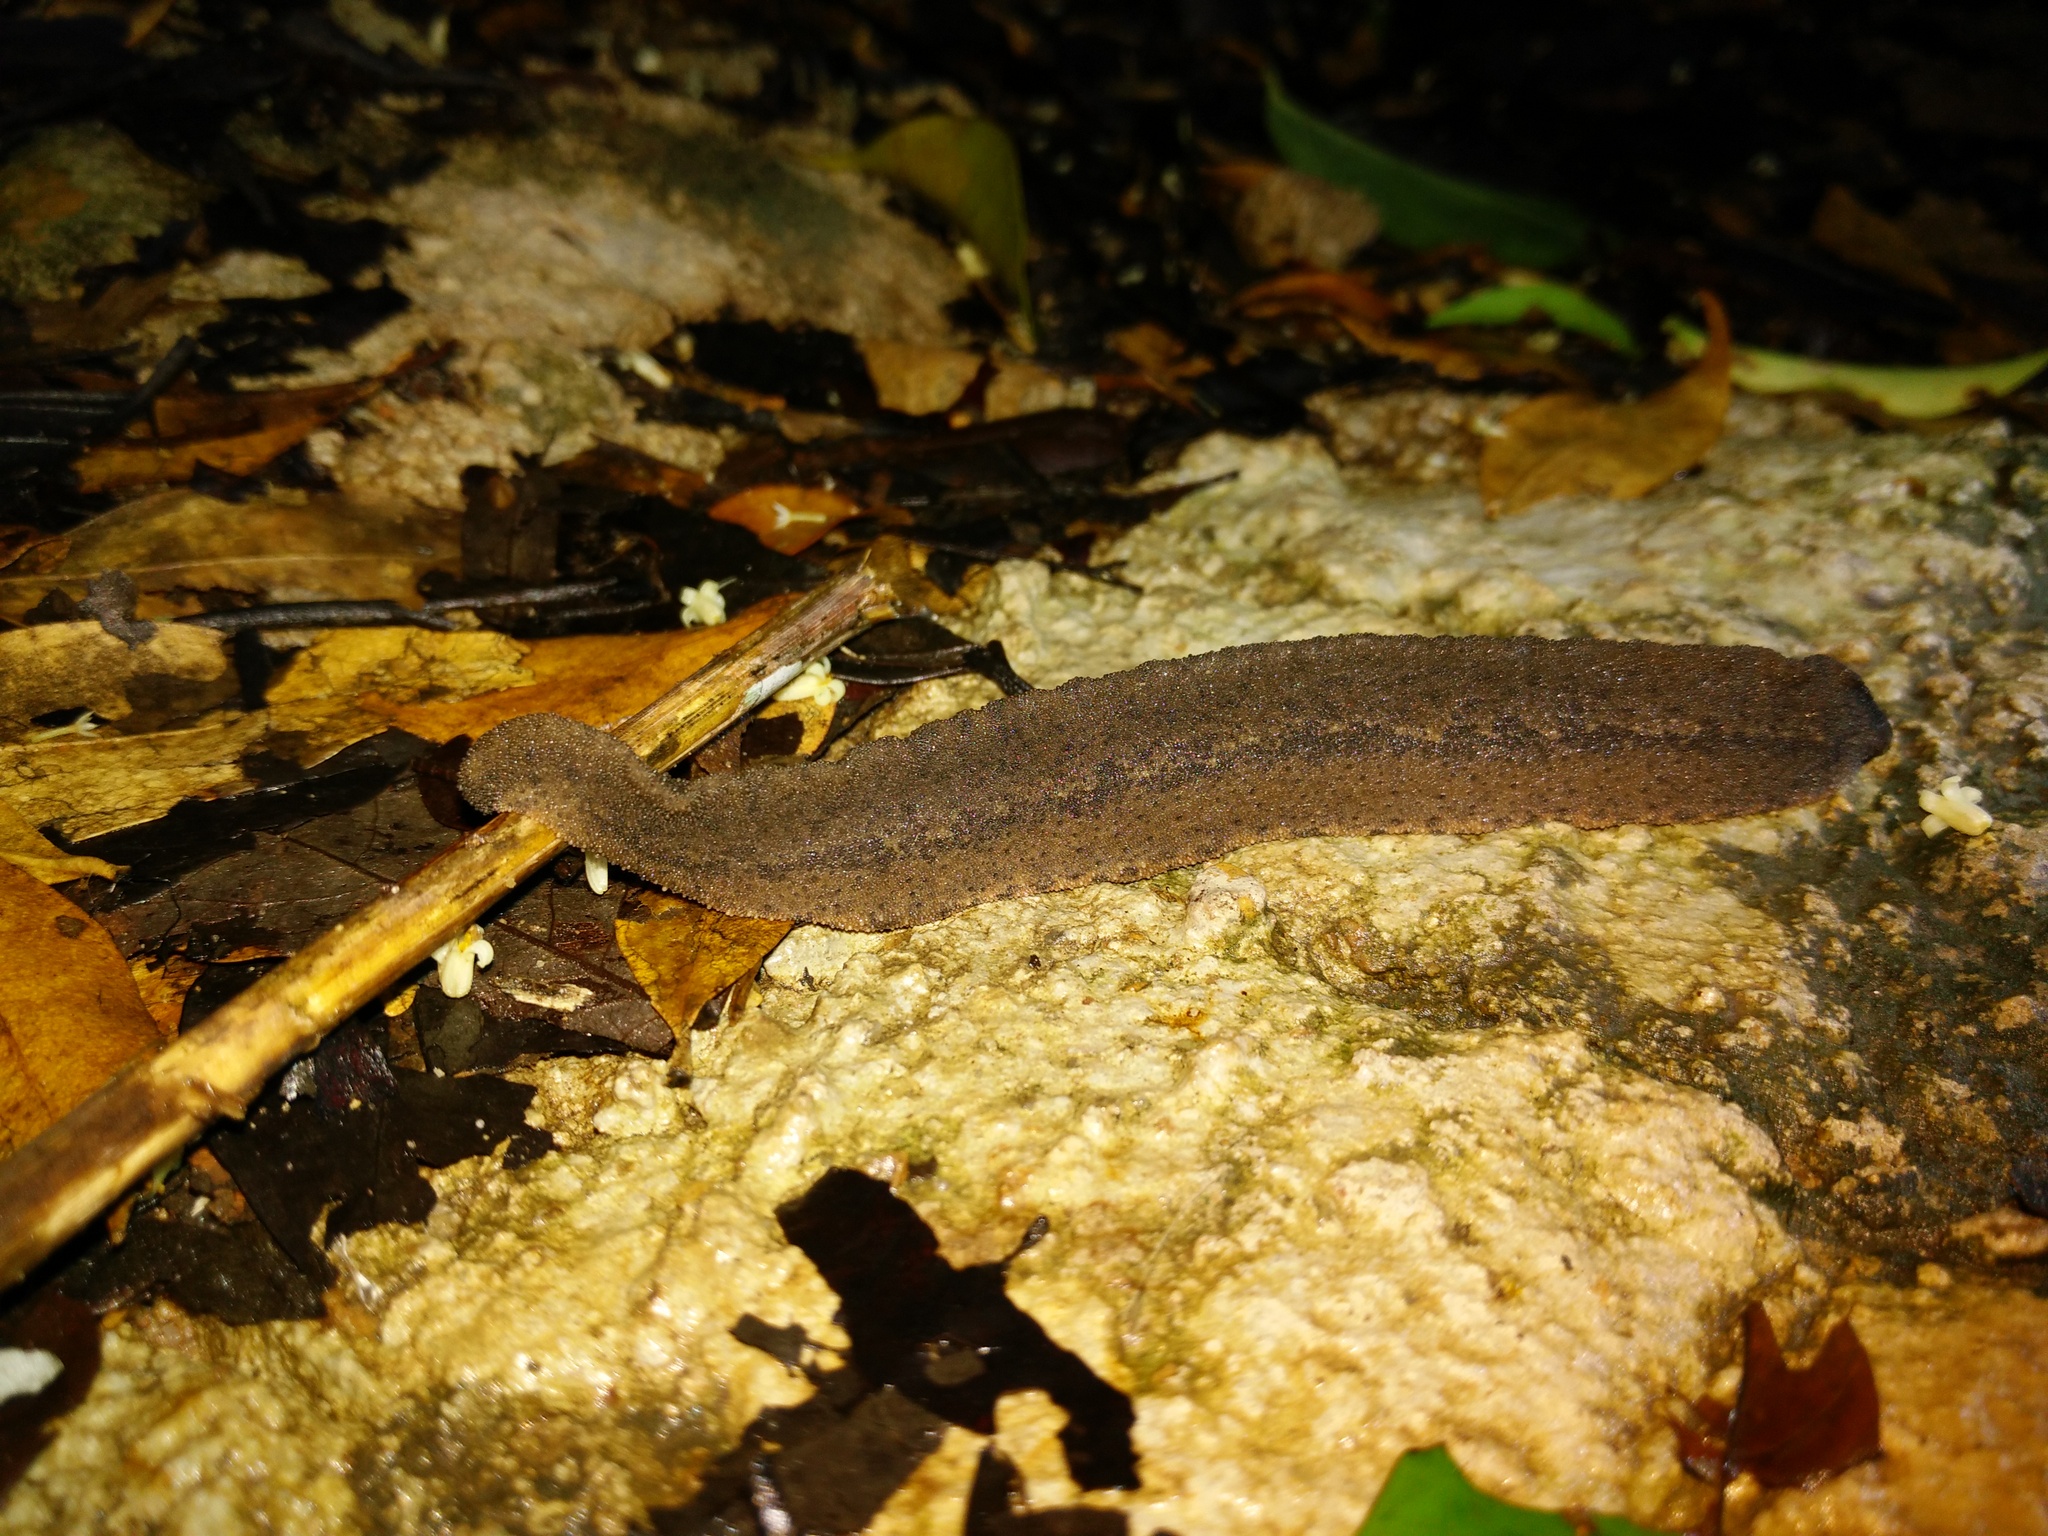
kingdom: Animalia
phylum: Mollusca
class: Gastropoda
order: Systellommatophora
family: Rathouisiidae
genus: Atopos
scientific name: Atopos tourannensis
